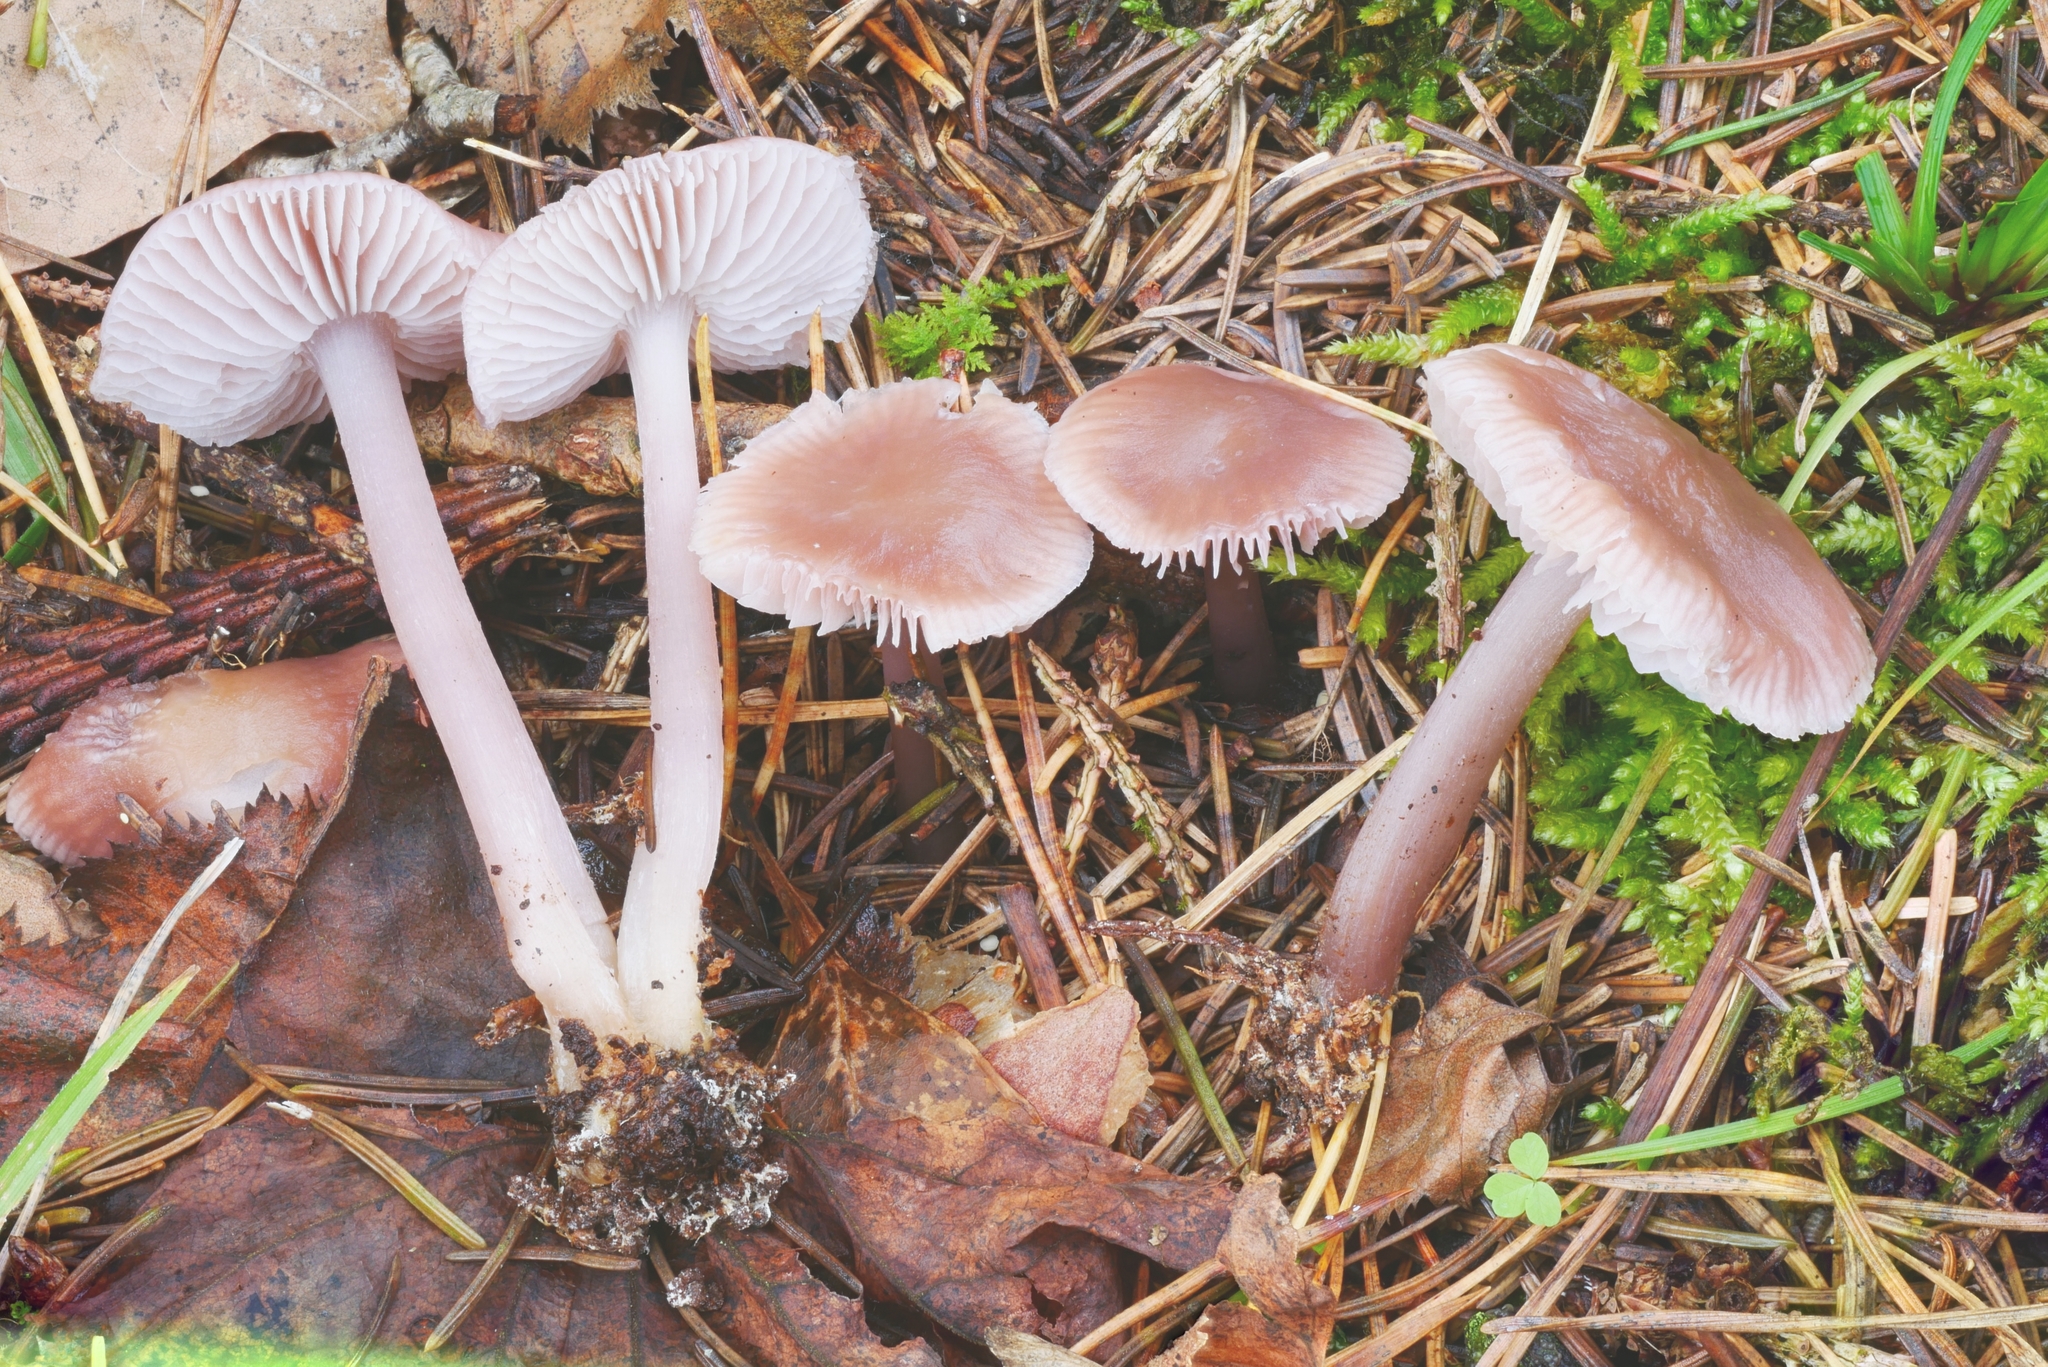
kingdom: Fungi
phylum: Basidiomycota
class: Agaricomycetes
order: Agaricales
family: Mycenaceae
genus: Mycena
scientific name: Mycena pura
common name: Lilac bonnet
